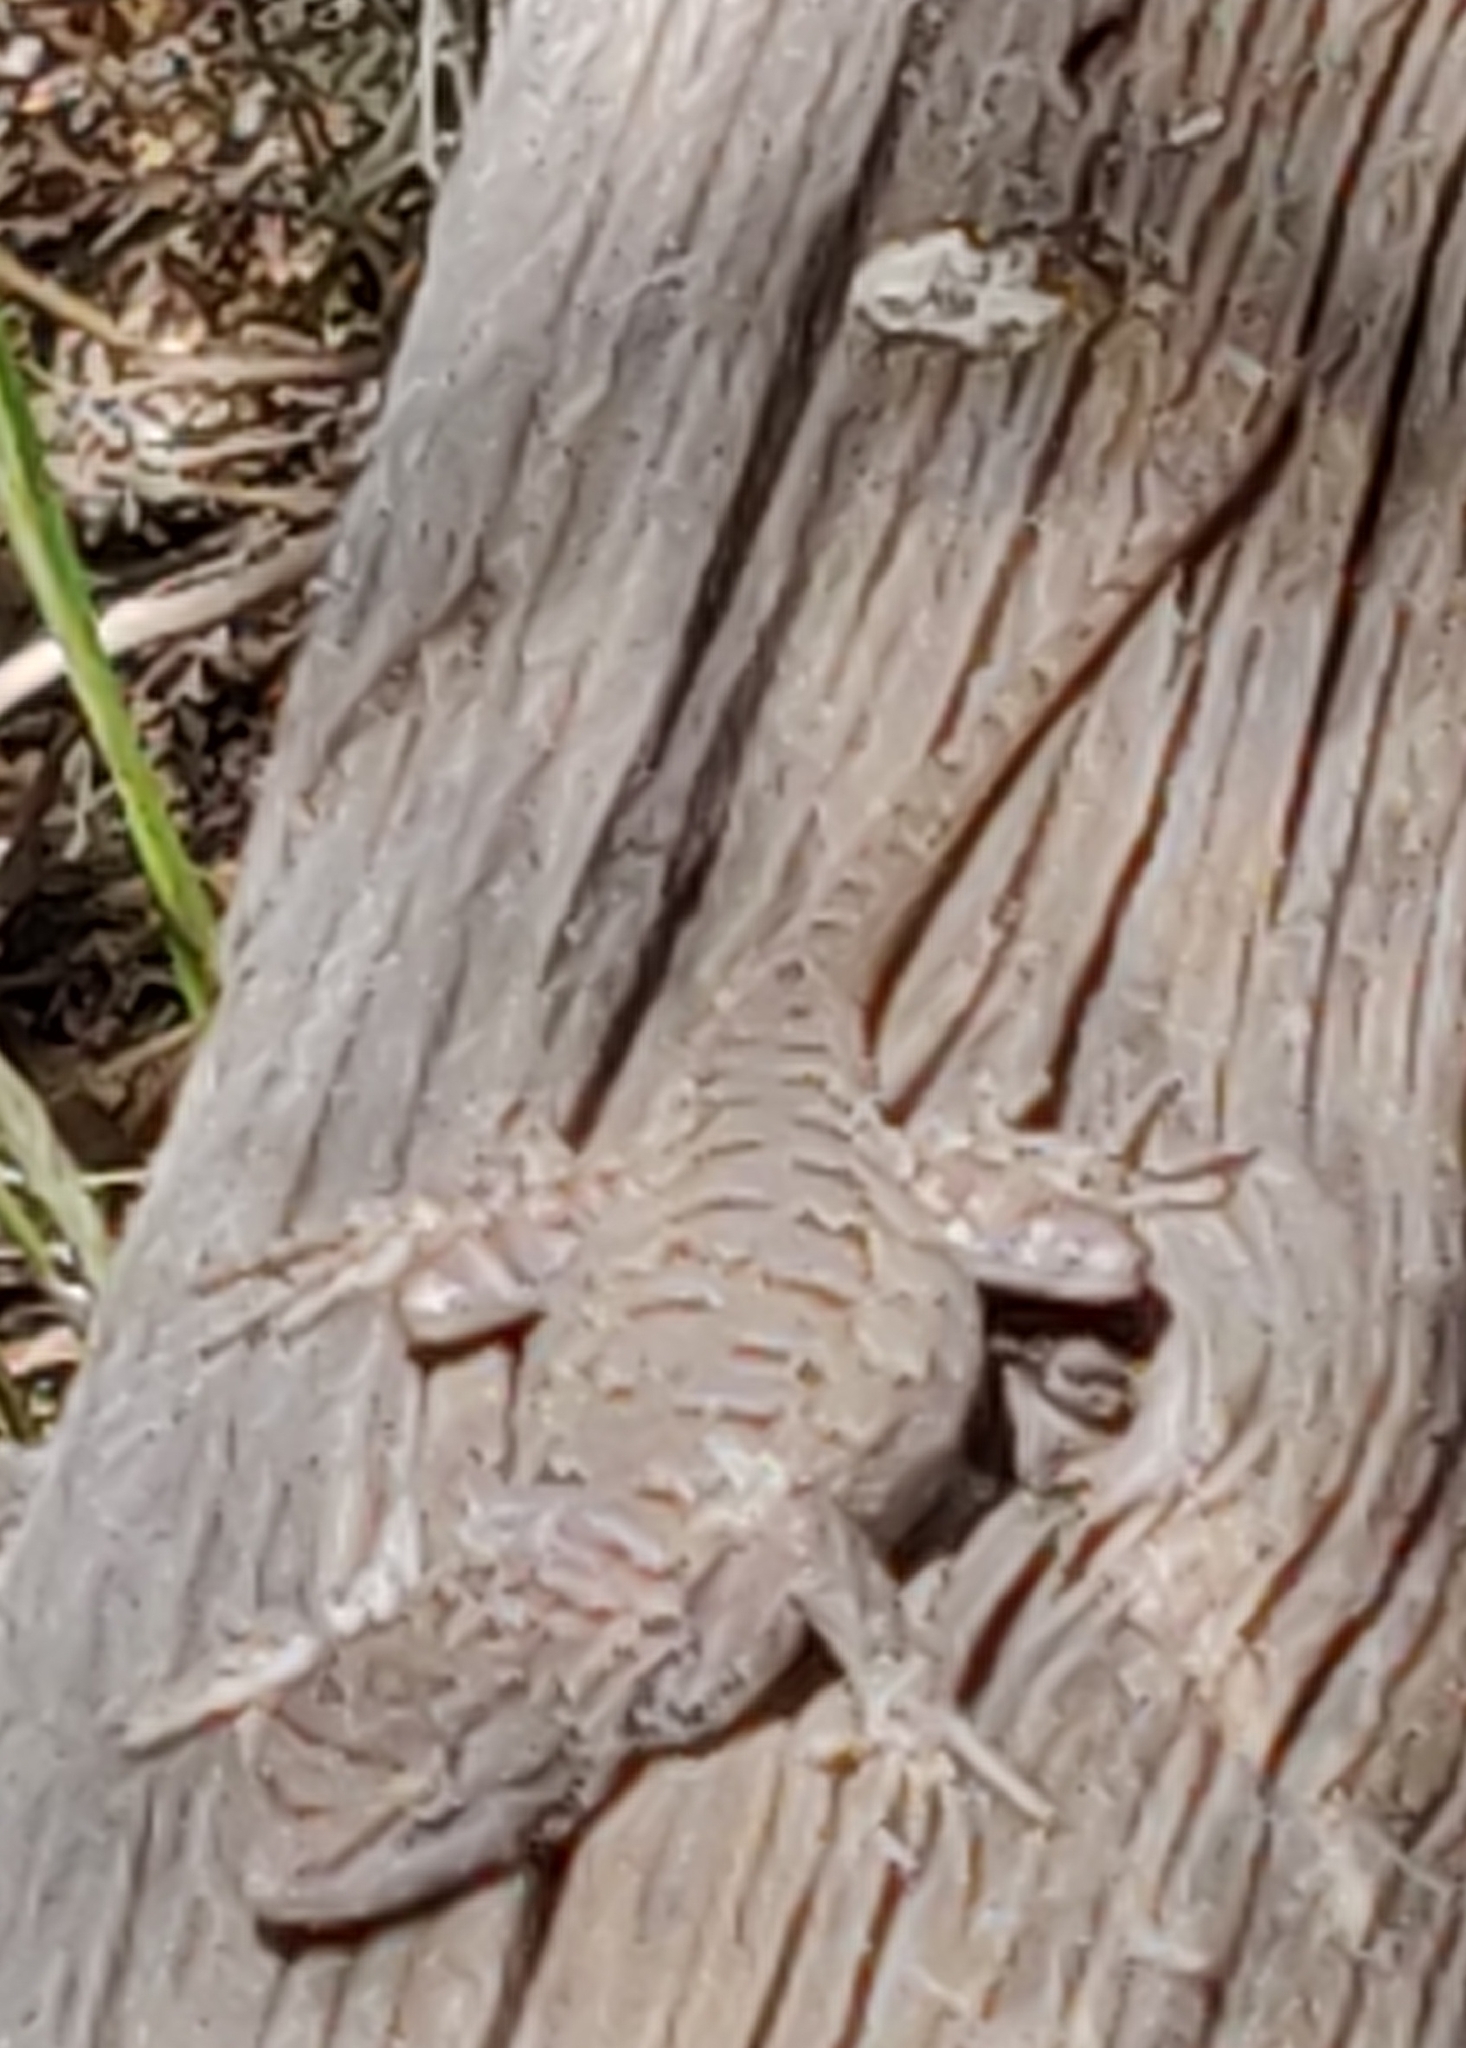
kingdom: Animalia
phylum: Chordata
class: Squamata
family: Phrynosomatidae
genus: Sceloporus
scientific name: Sceloporus tristichus
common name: Plateau fence lizard
